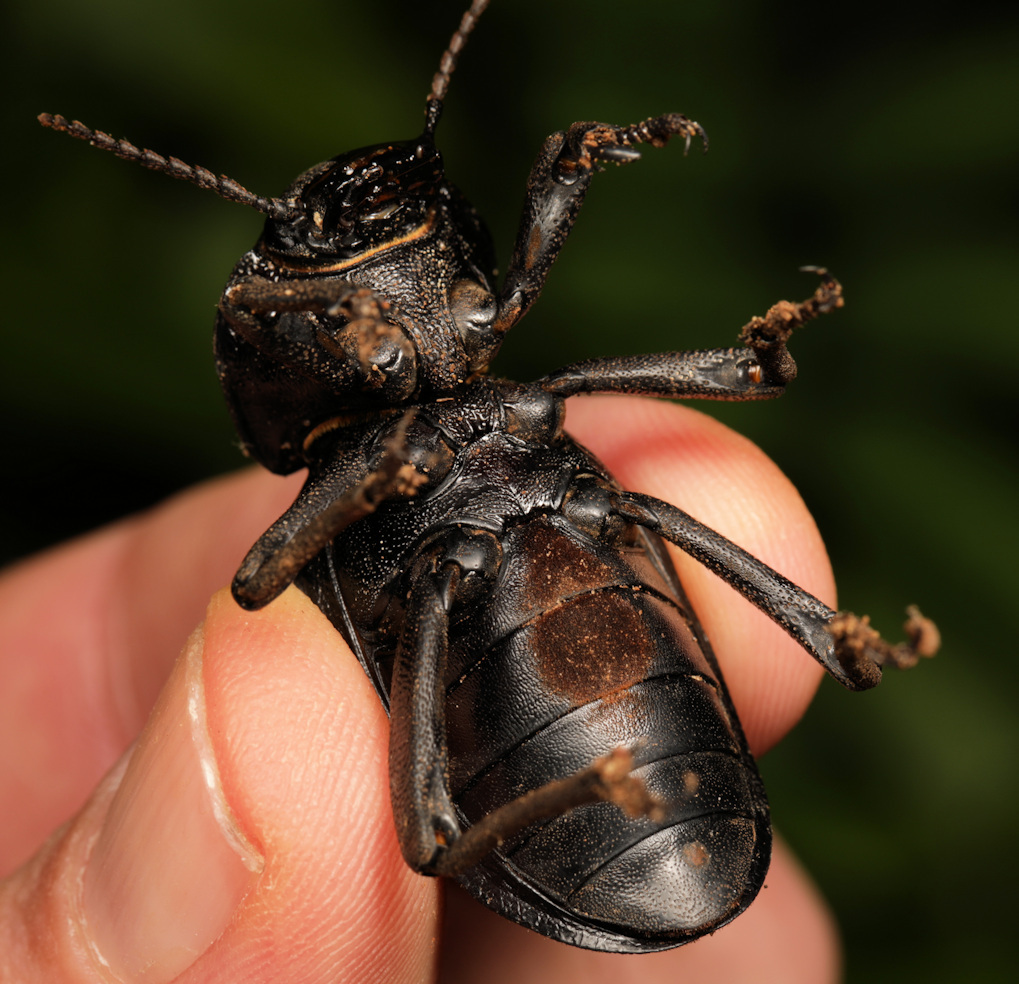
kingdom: Animalia
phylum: Arthropoda
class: Insecta
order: Coleoptera
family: Tenebrionidae
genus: Ocnodes
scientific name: Ocnodes rowleianus
